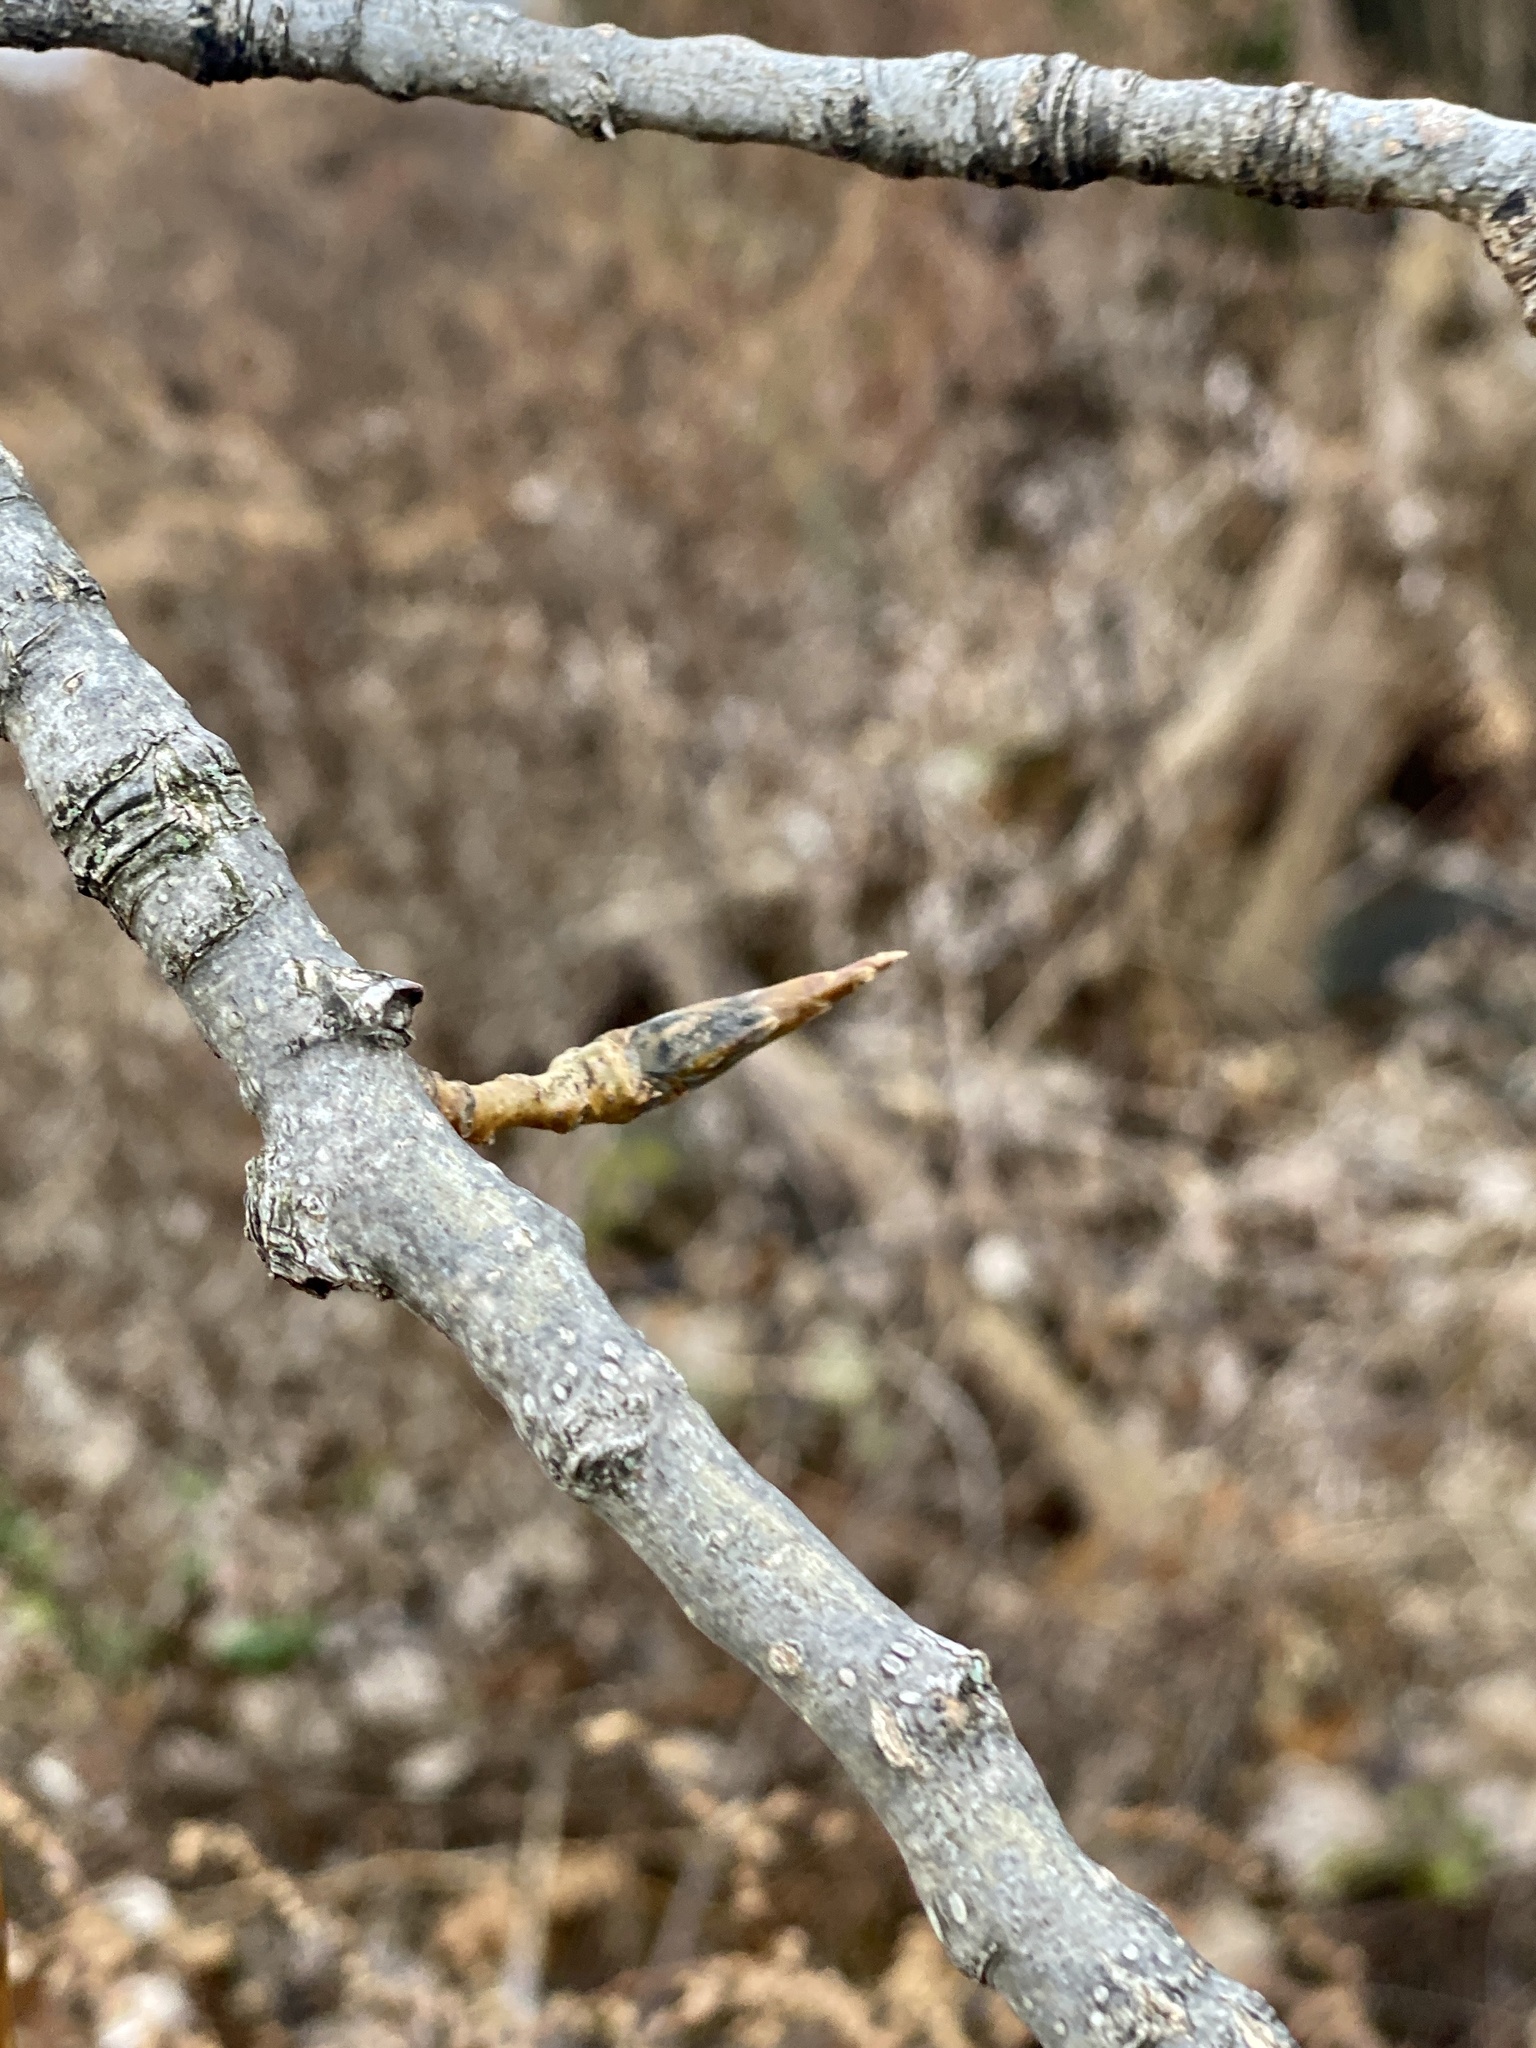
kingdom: Plantae
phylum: Tracheophyta
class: Magnoliopsida
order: Malpighiales
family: Salicaceae
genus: Populus
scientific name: Populus deltoides
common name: Eastern cottonwood
